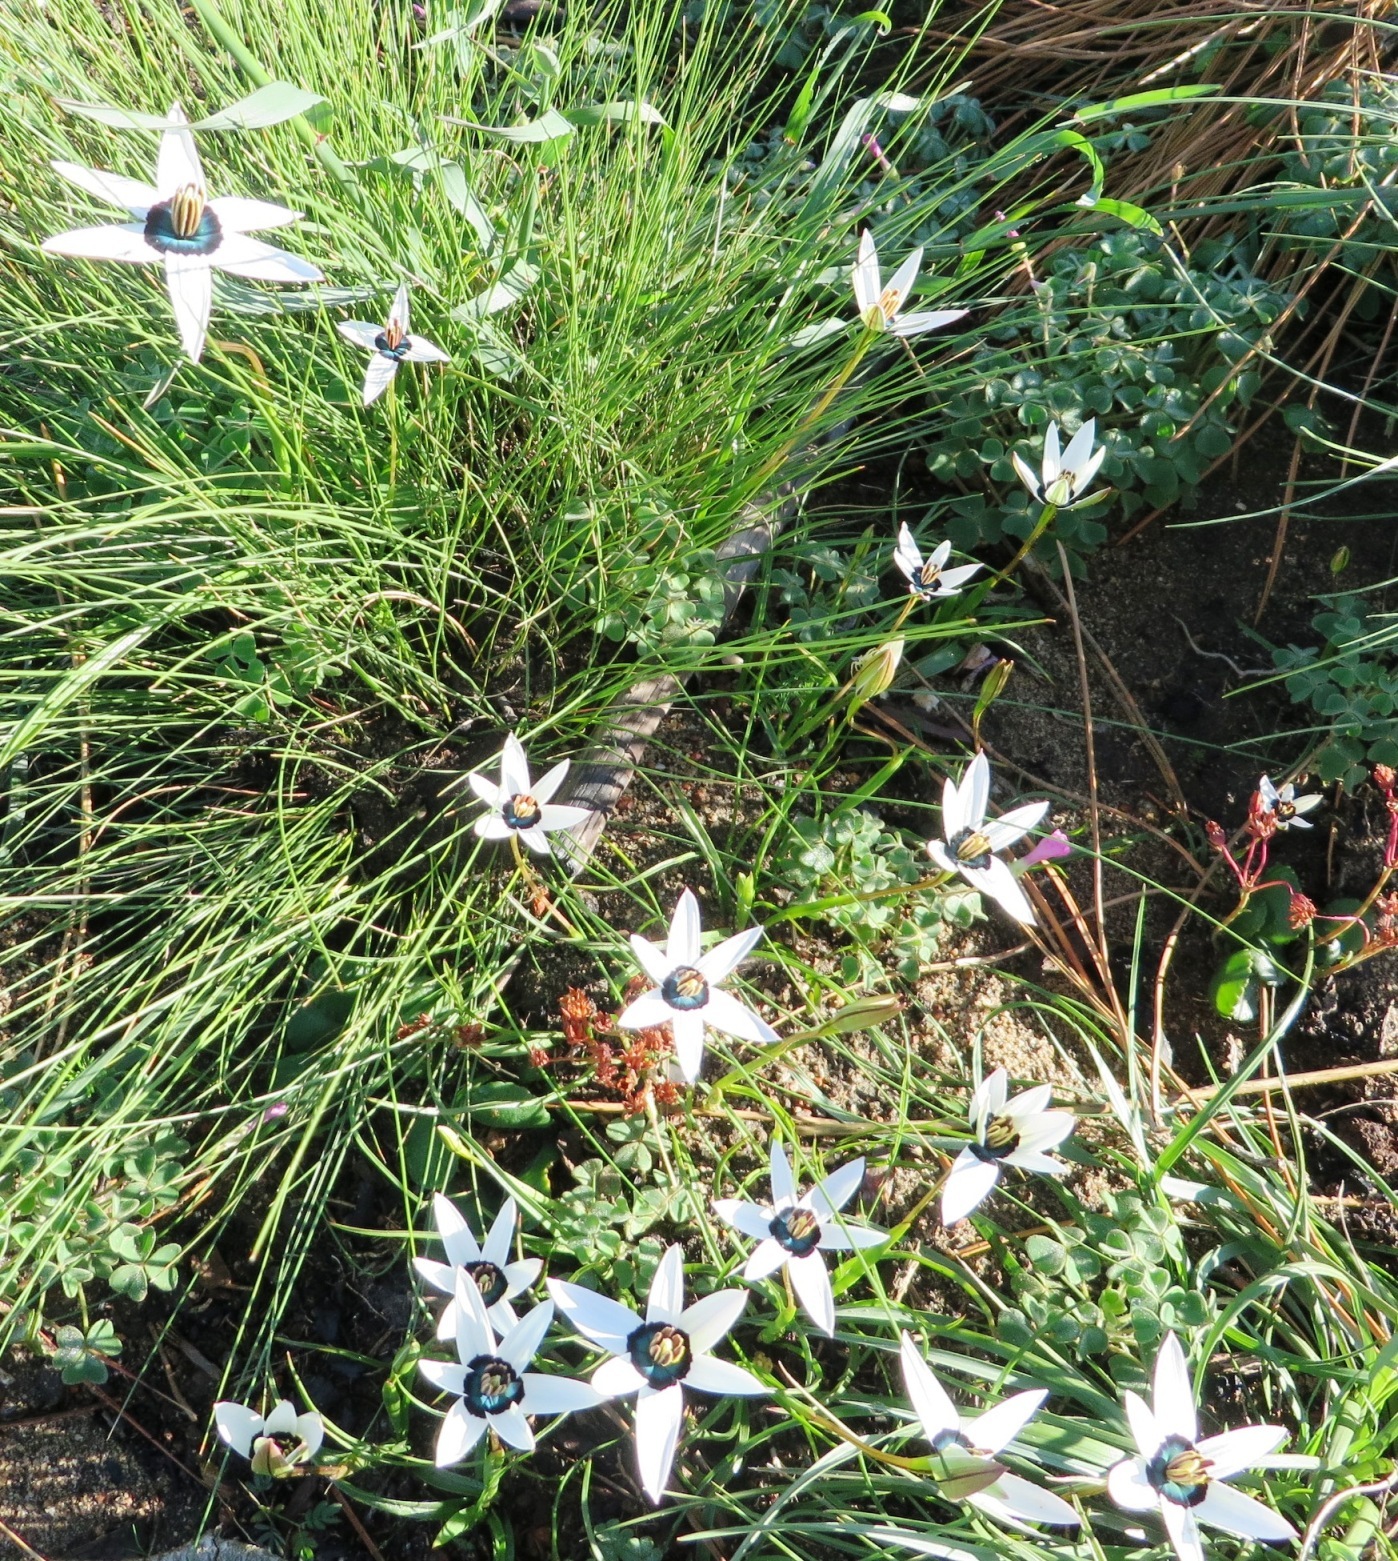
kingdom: Plantae
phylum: Tracheophyta
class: Liliopsida
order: Asparagales
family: Hypoxidaceae
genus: Pauridia
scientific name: Pauridia capensis
